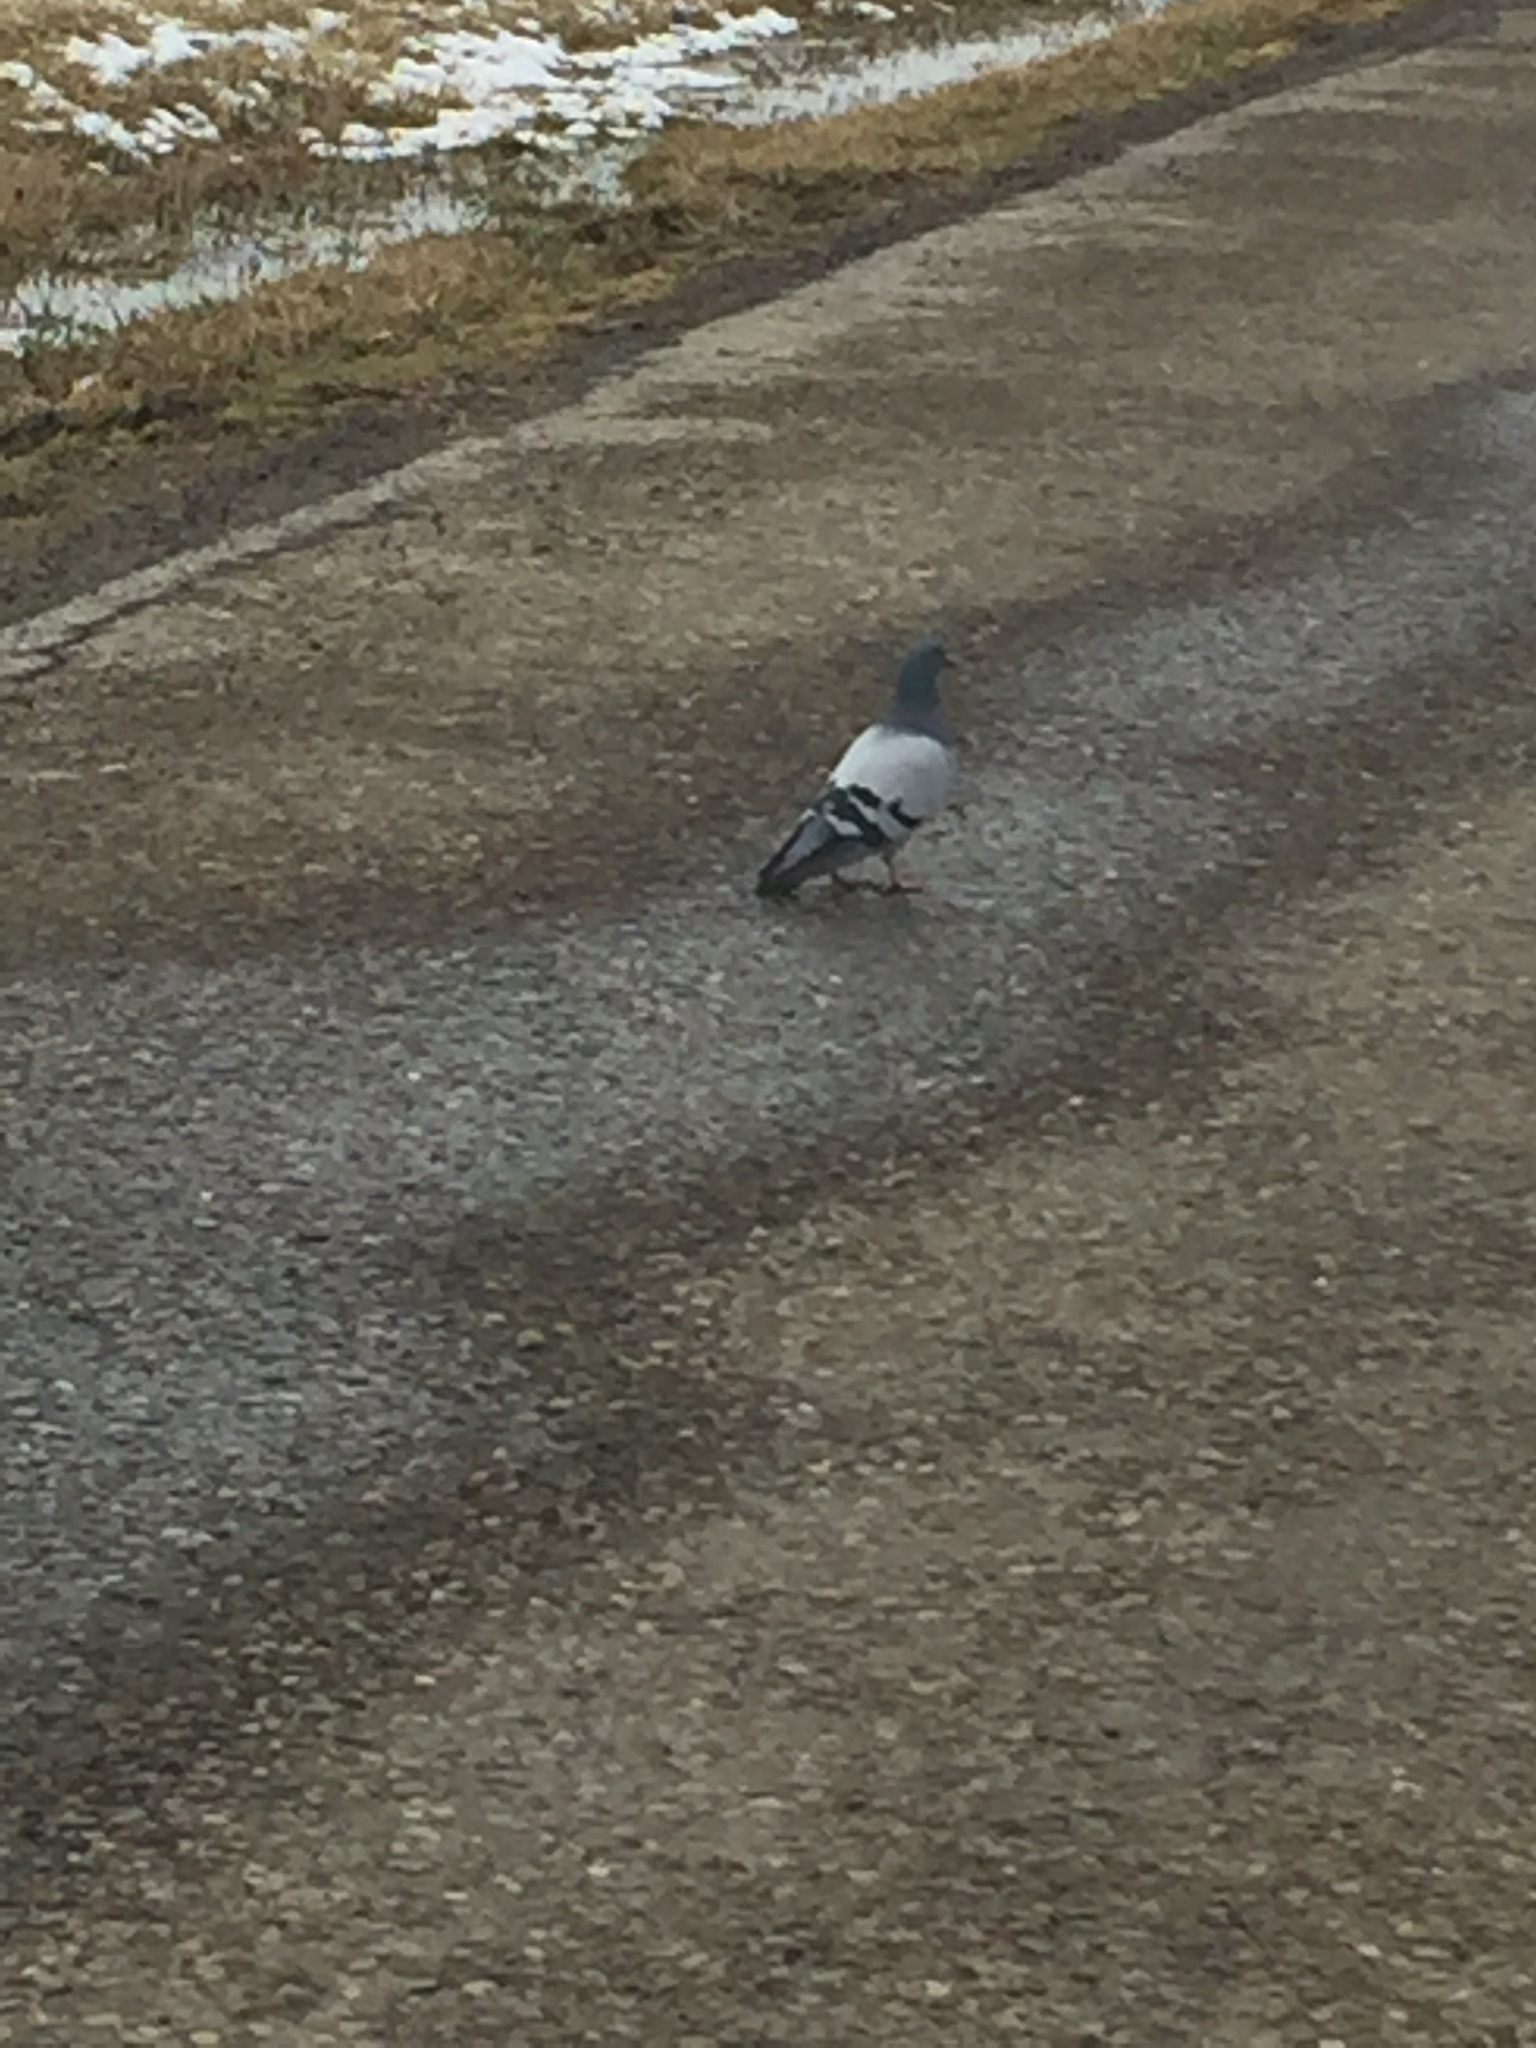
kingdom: Animalia
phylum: Chordata
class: Aves
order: Columbiformes
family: Columbidae
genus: Columba
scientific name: Columba livia
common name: Rock pigeon
